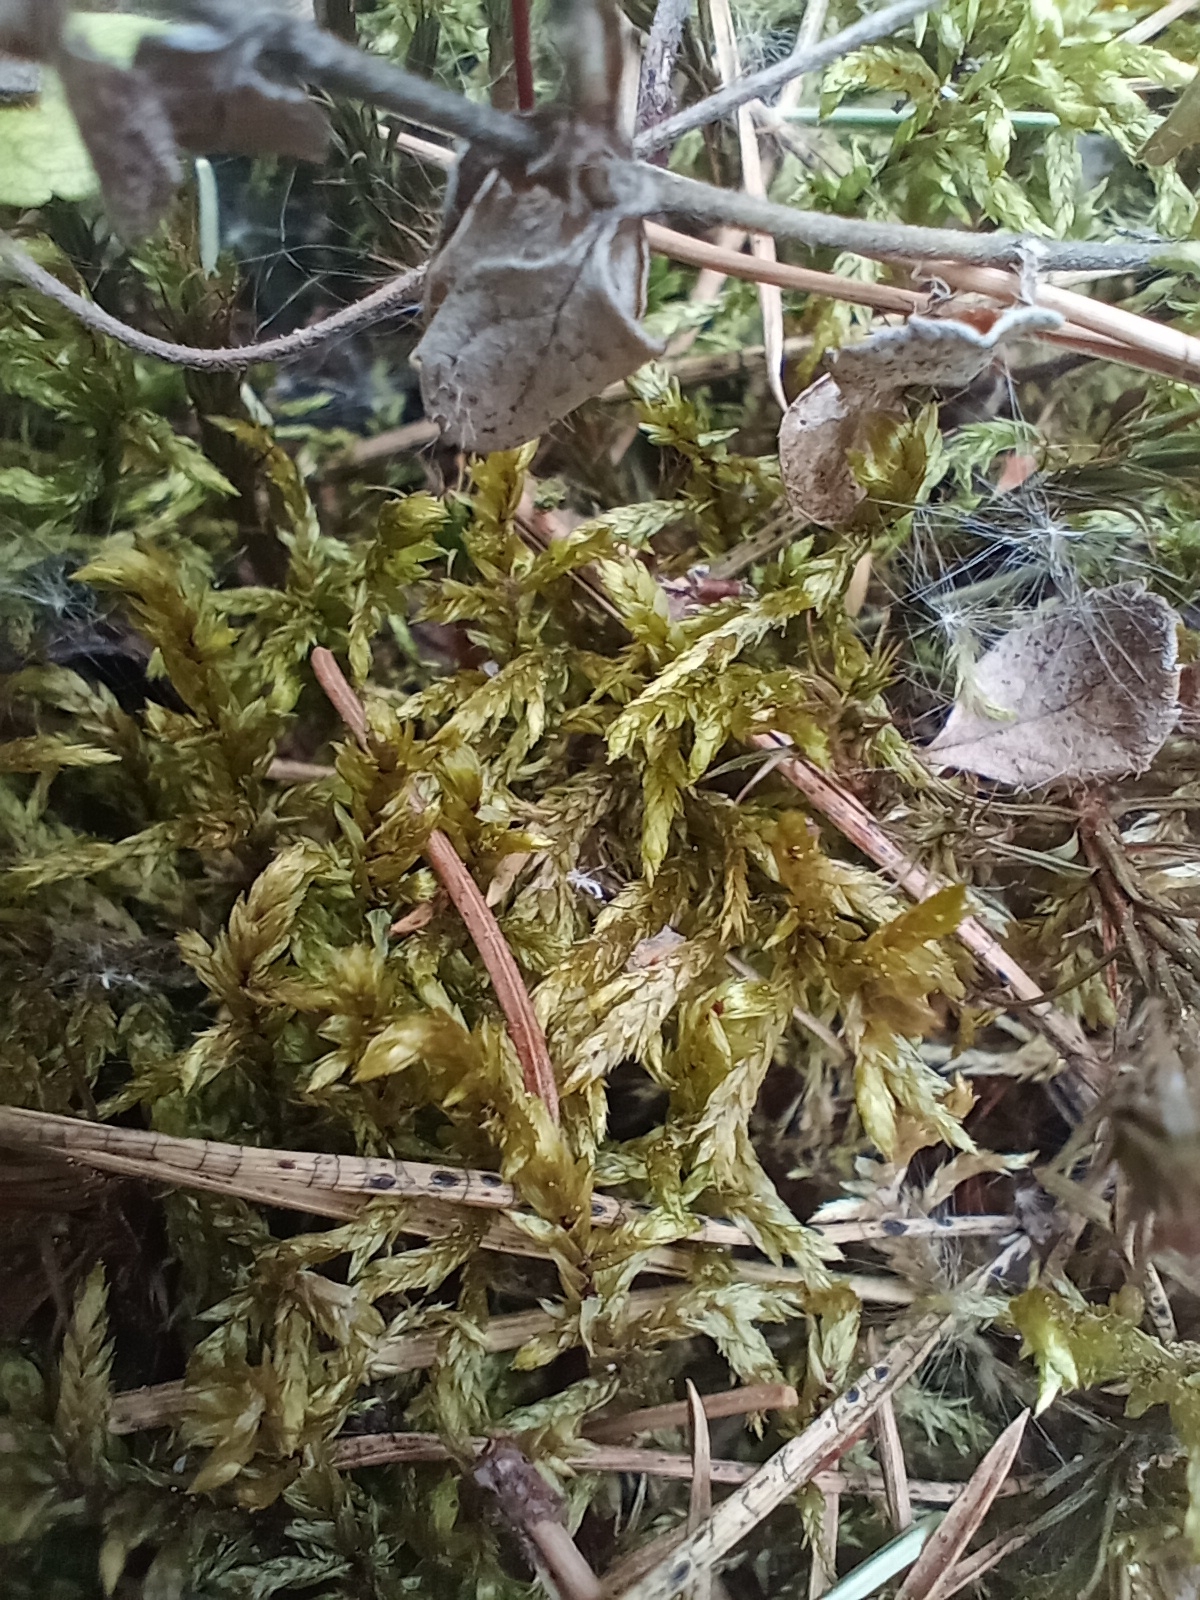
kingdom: Plantae
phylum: Bryophyta
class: Bryopsida
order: Hypnales
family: Hylocomiaceae
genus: Pleurozium
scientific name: Pleurozium schreberi
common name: Red-stemmed feather moss
